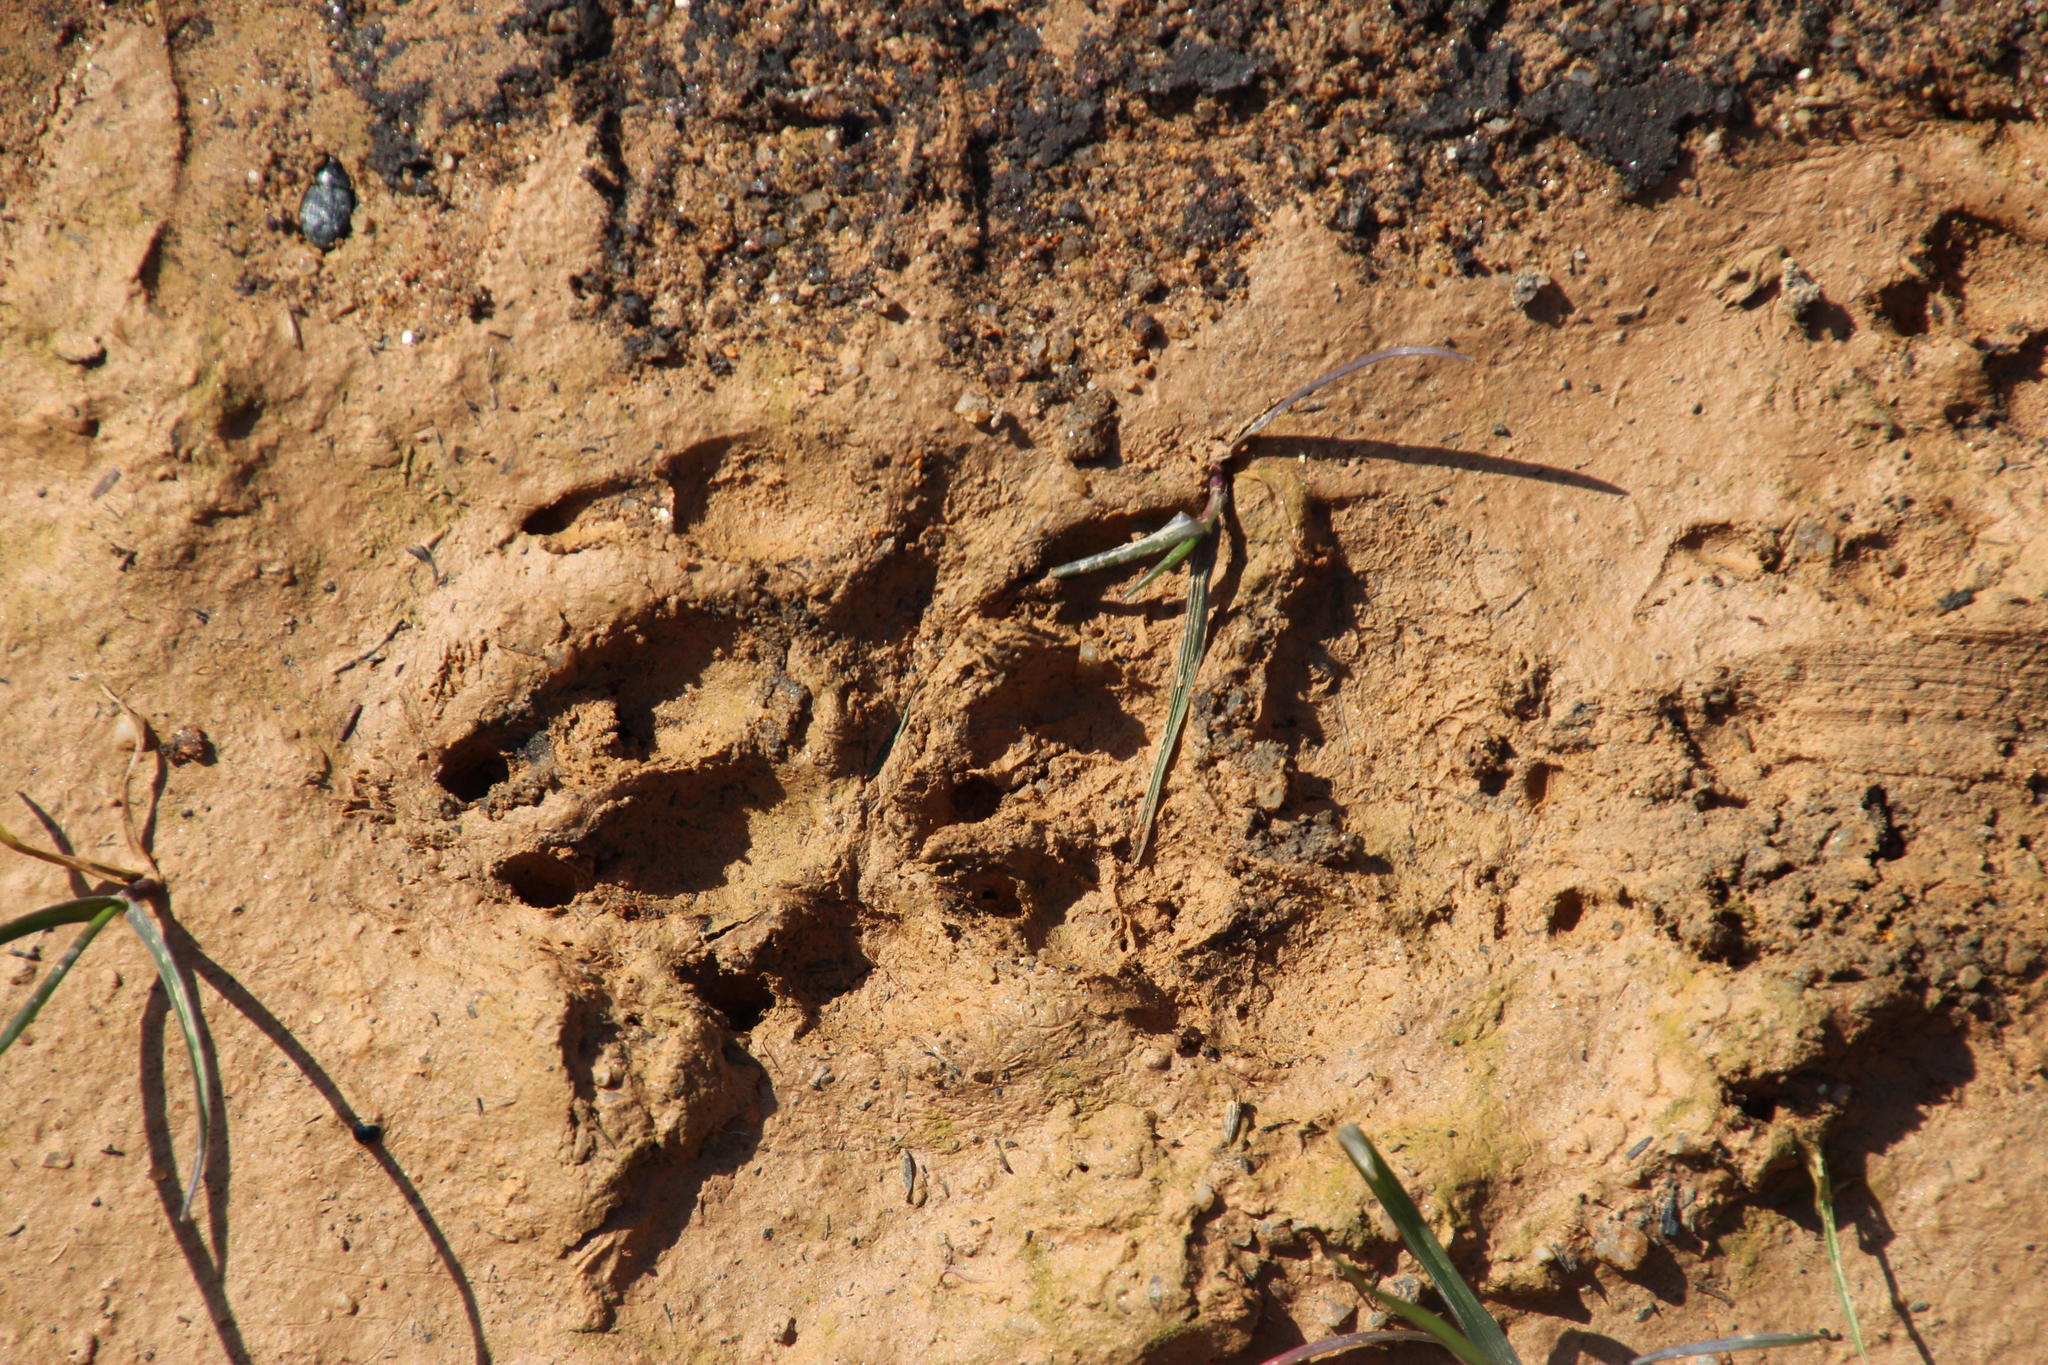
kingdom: Animalia
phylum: Chordata
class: Mammalia
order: Carnivora
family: Canidae
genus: Canis
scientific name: Canis lupus
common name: Gray wolf
